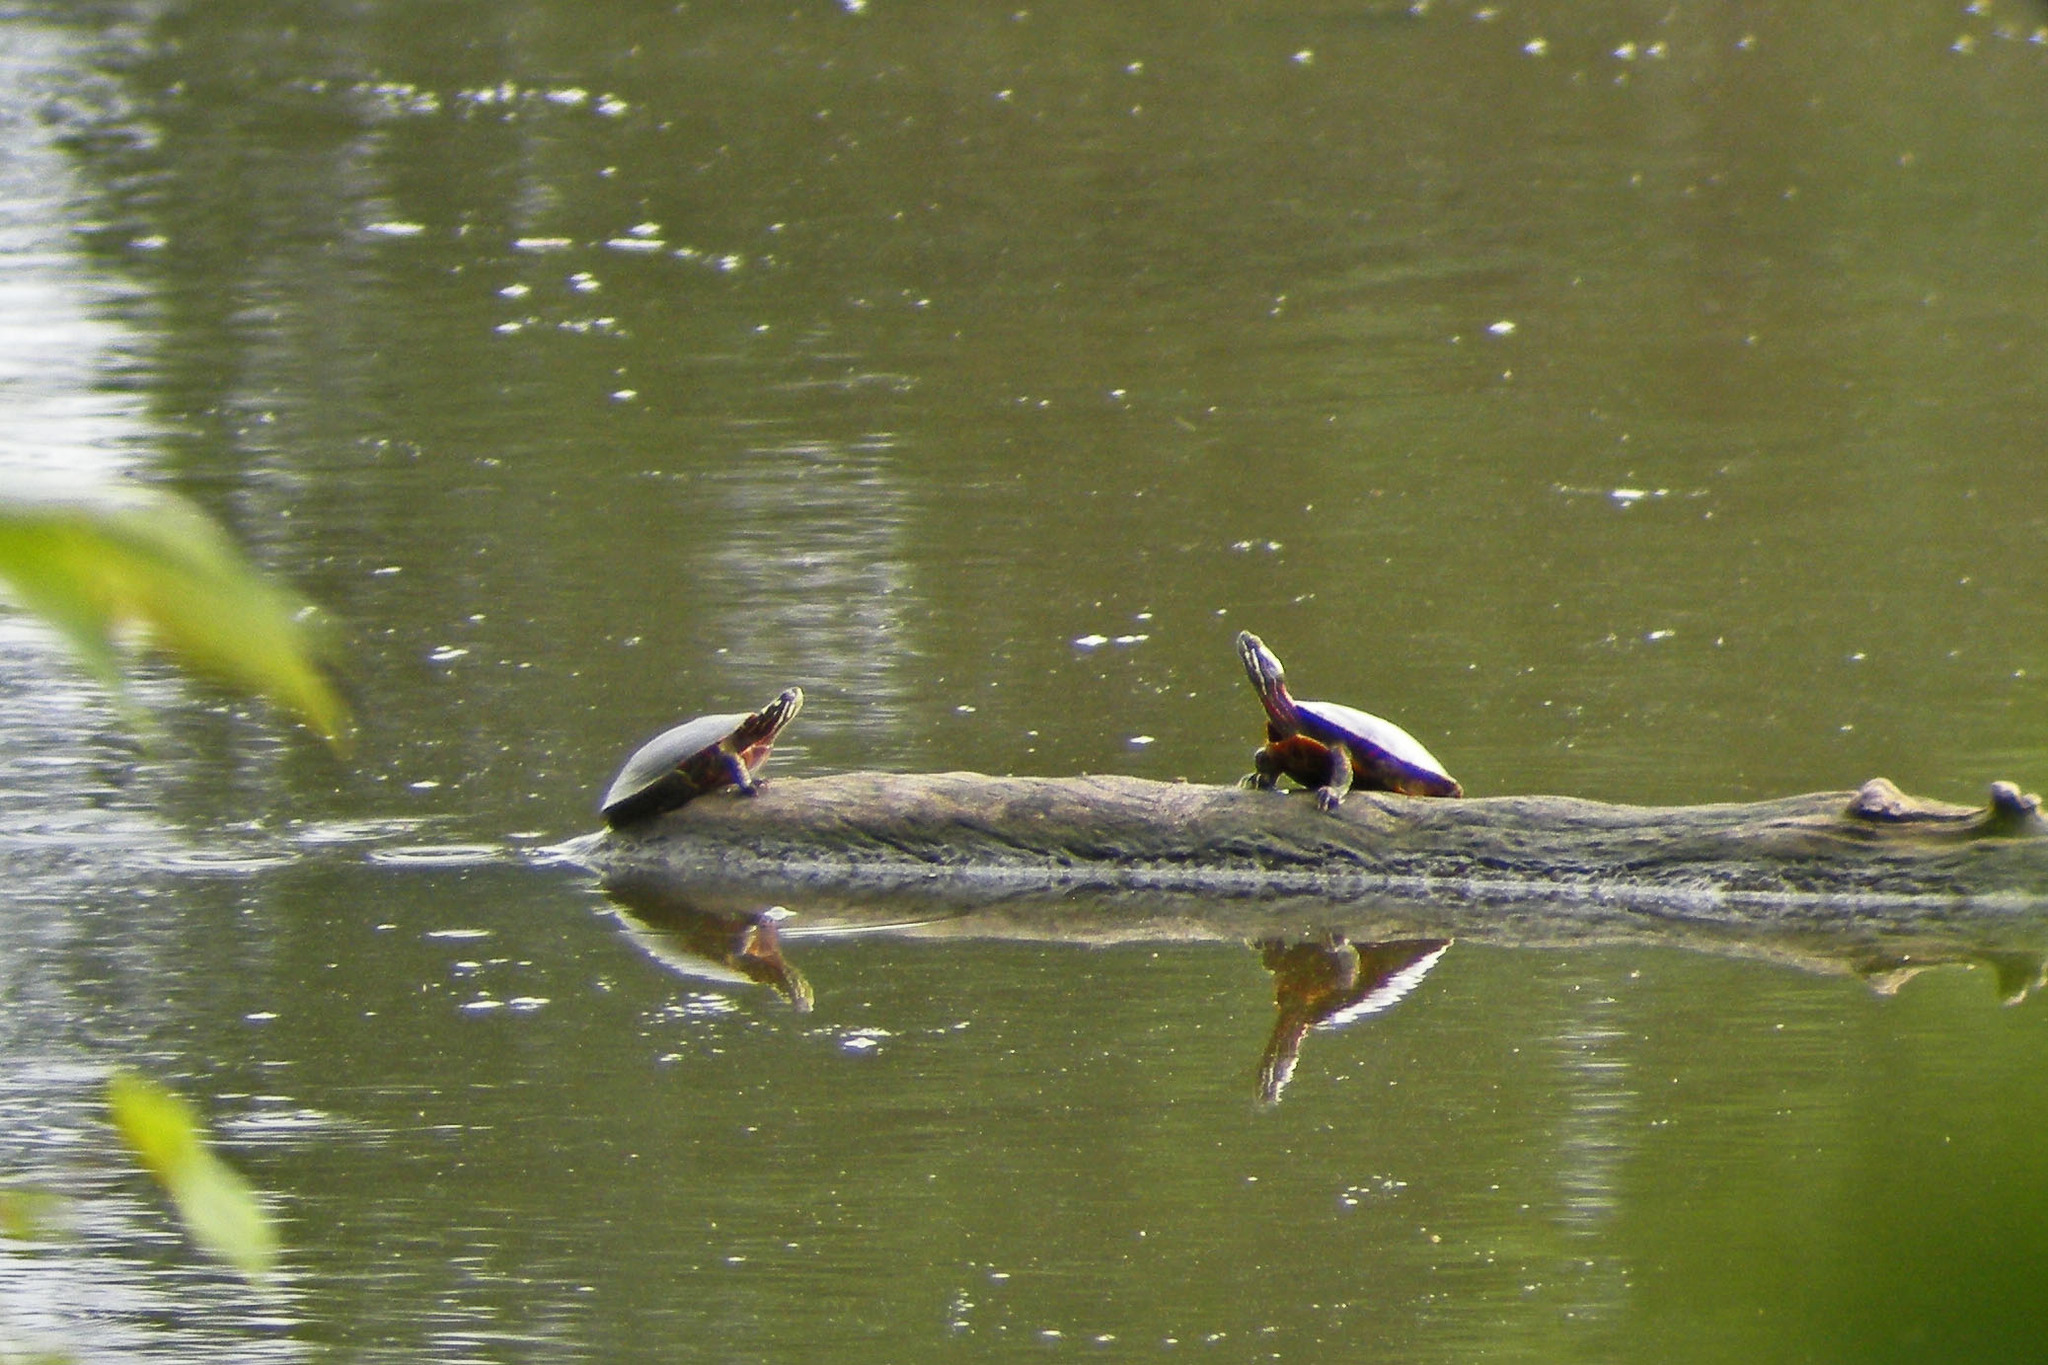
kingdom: Animalia
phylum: Chordata
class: Testudines
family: Emydidae
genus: Chrysemys
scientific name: Chrysemys picta
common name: Painted turtle
